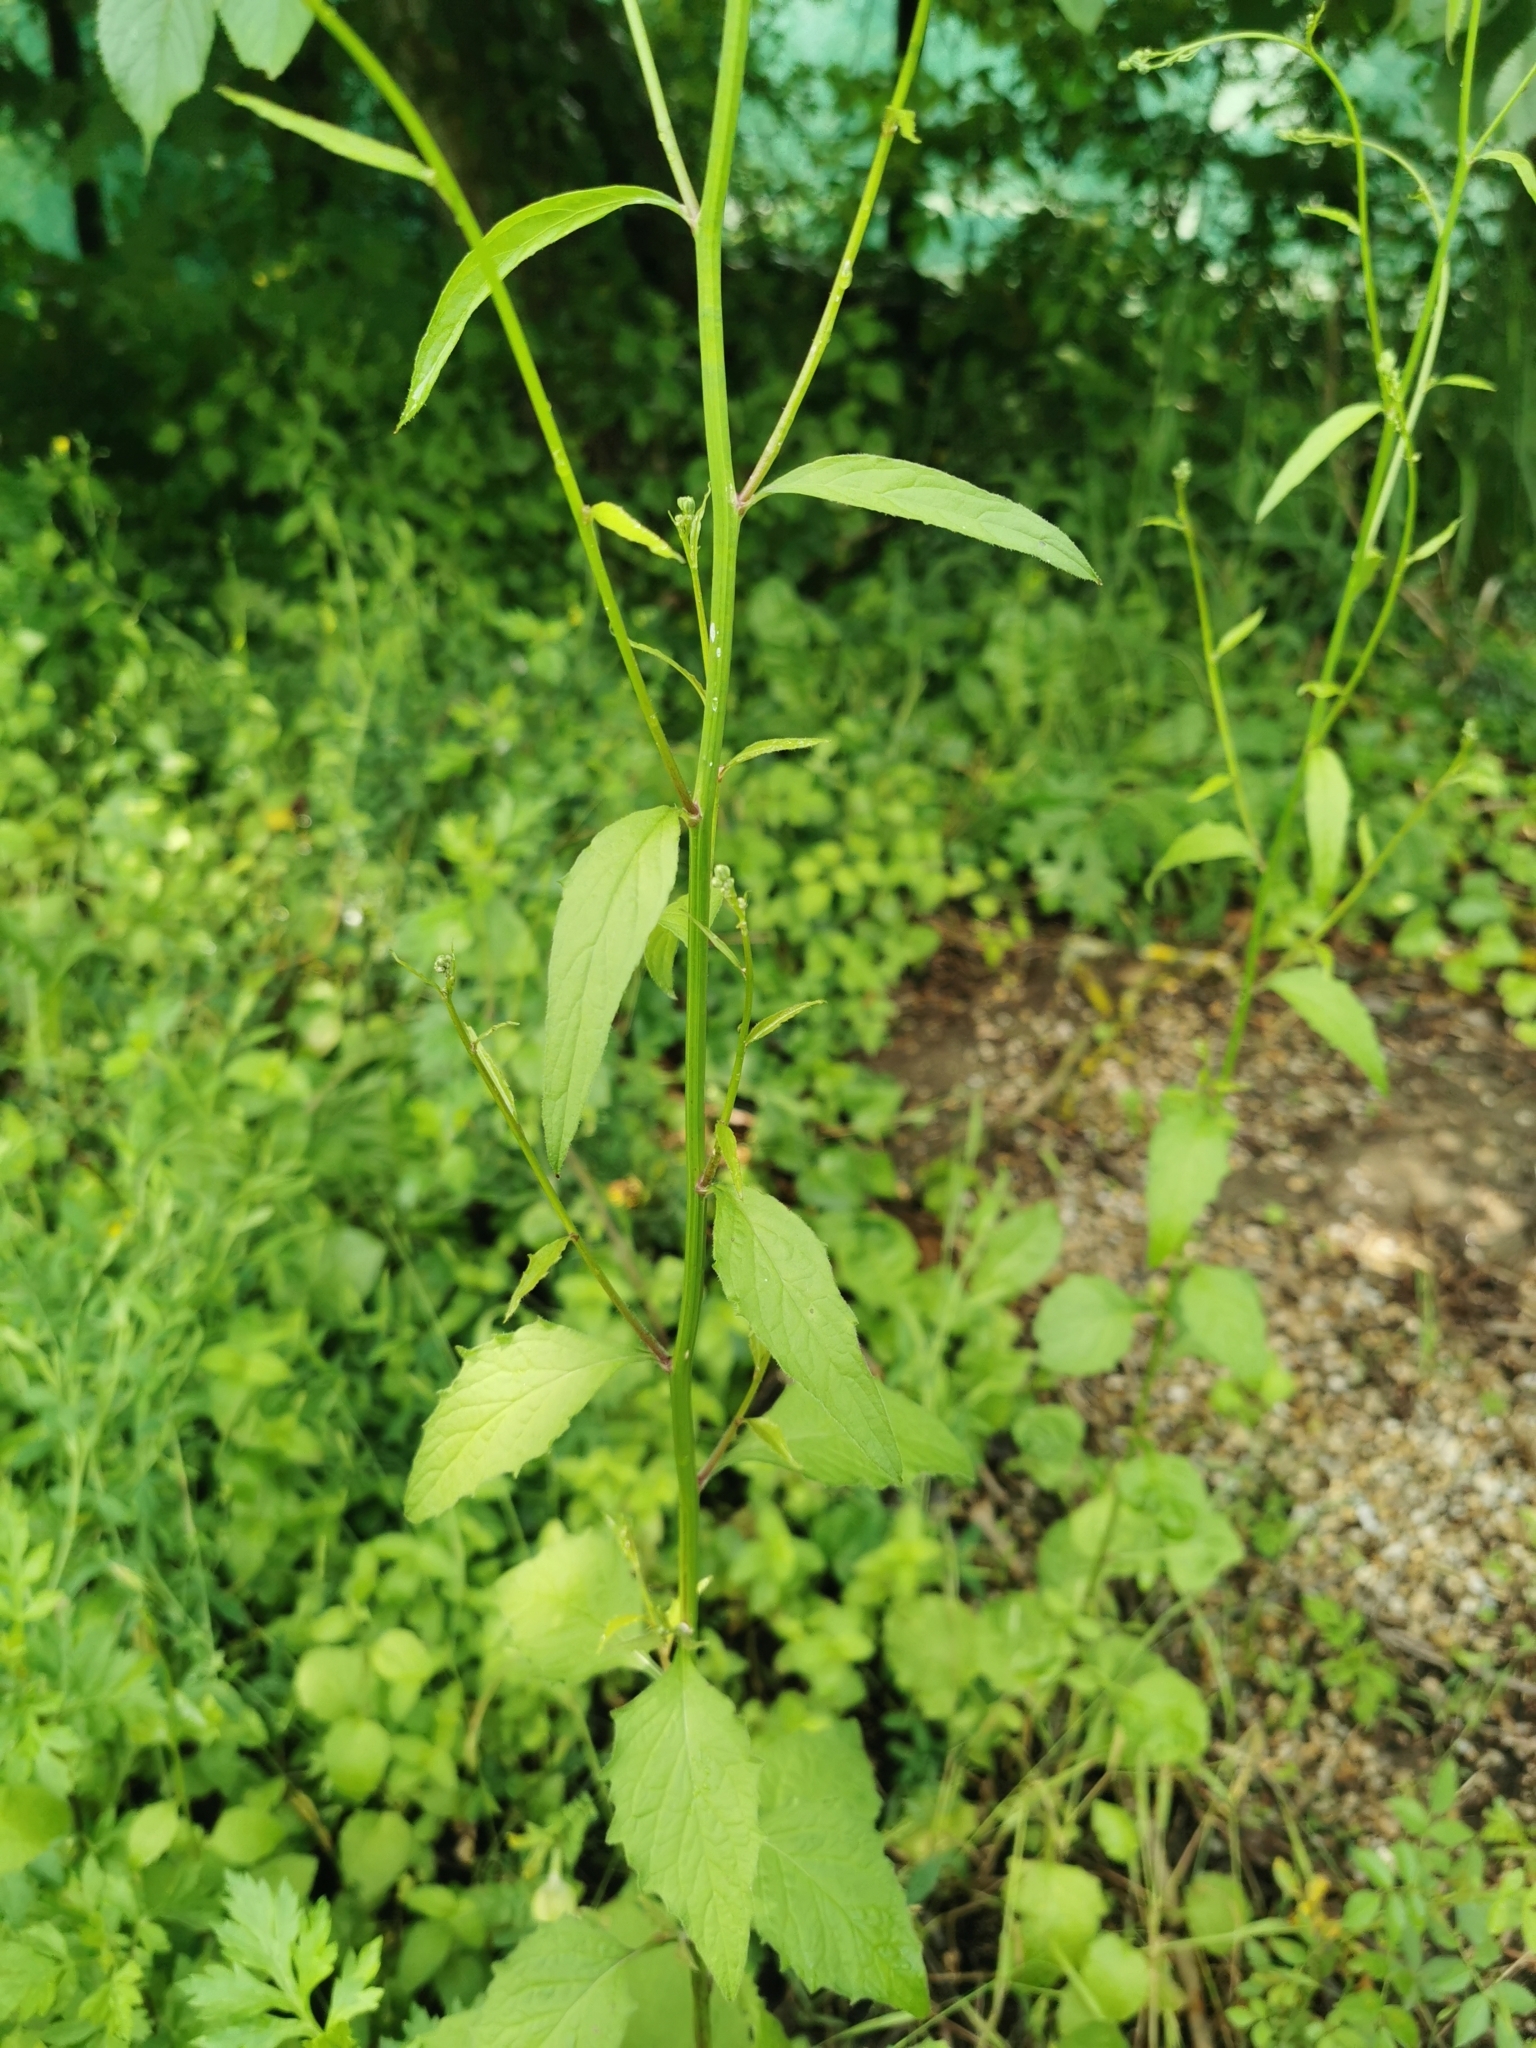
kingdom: Plantae
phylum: Tracheophyta
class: Magnoliopsida
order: Asterales
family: Asteraceae
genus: Lapsana
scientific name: Lapsana communis
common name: Nipplewort
